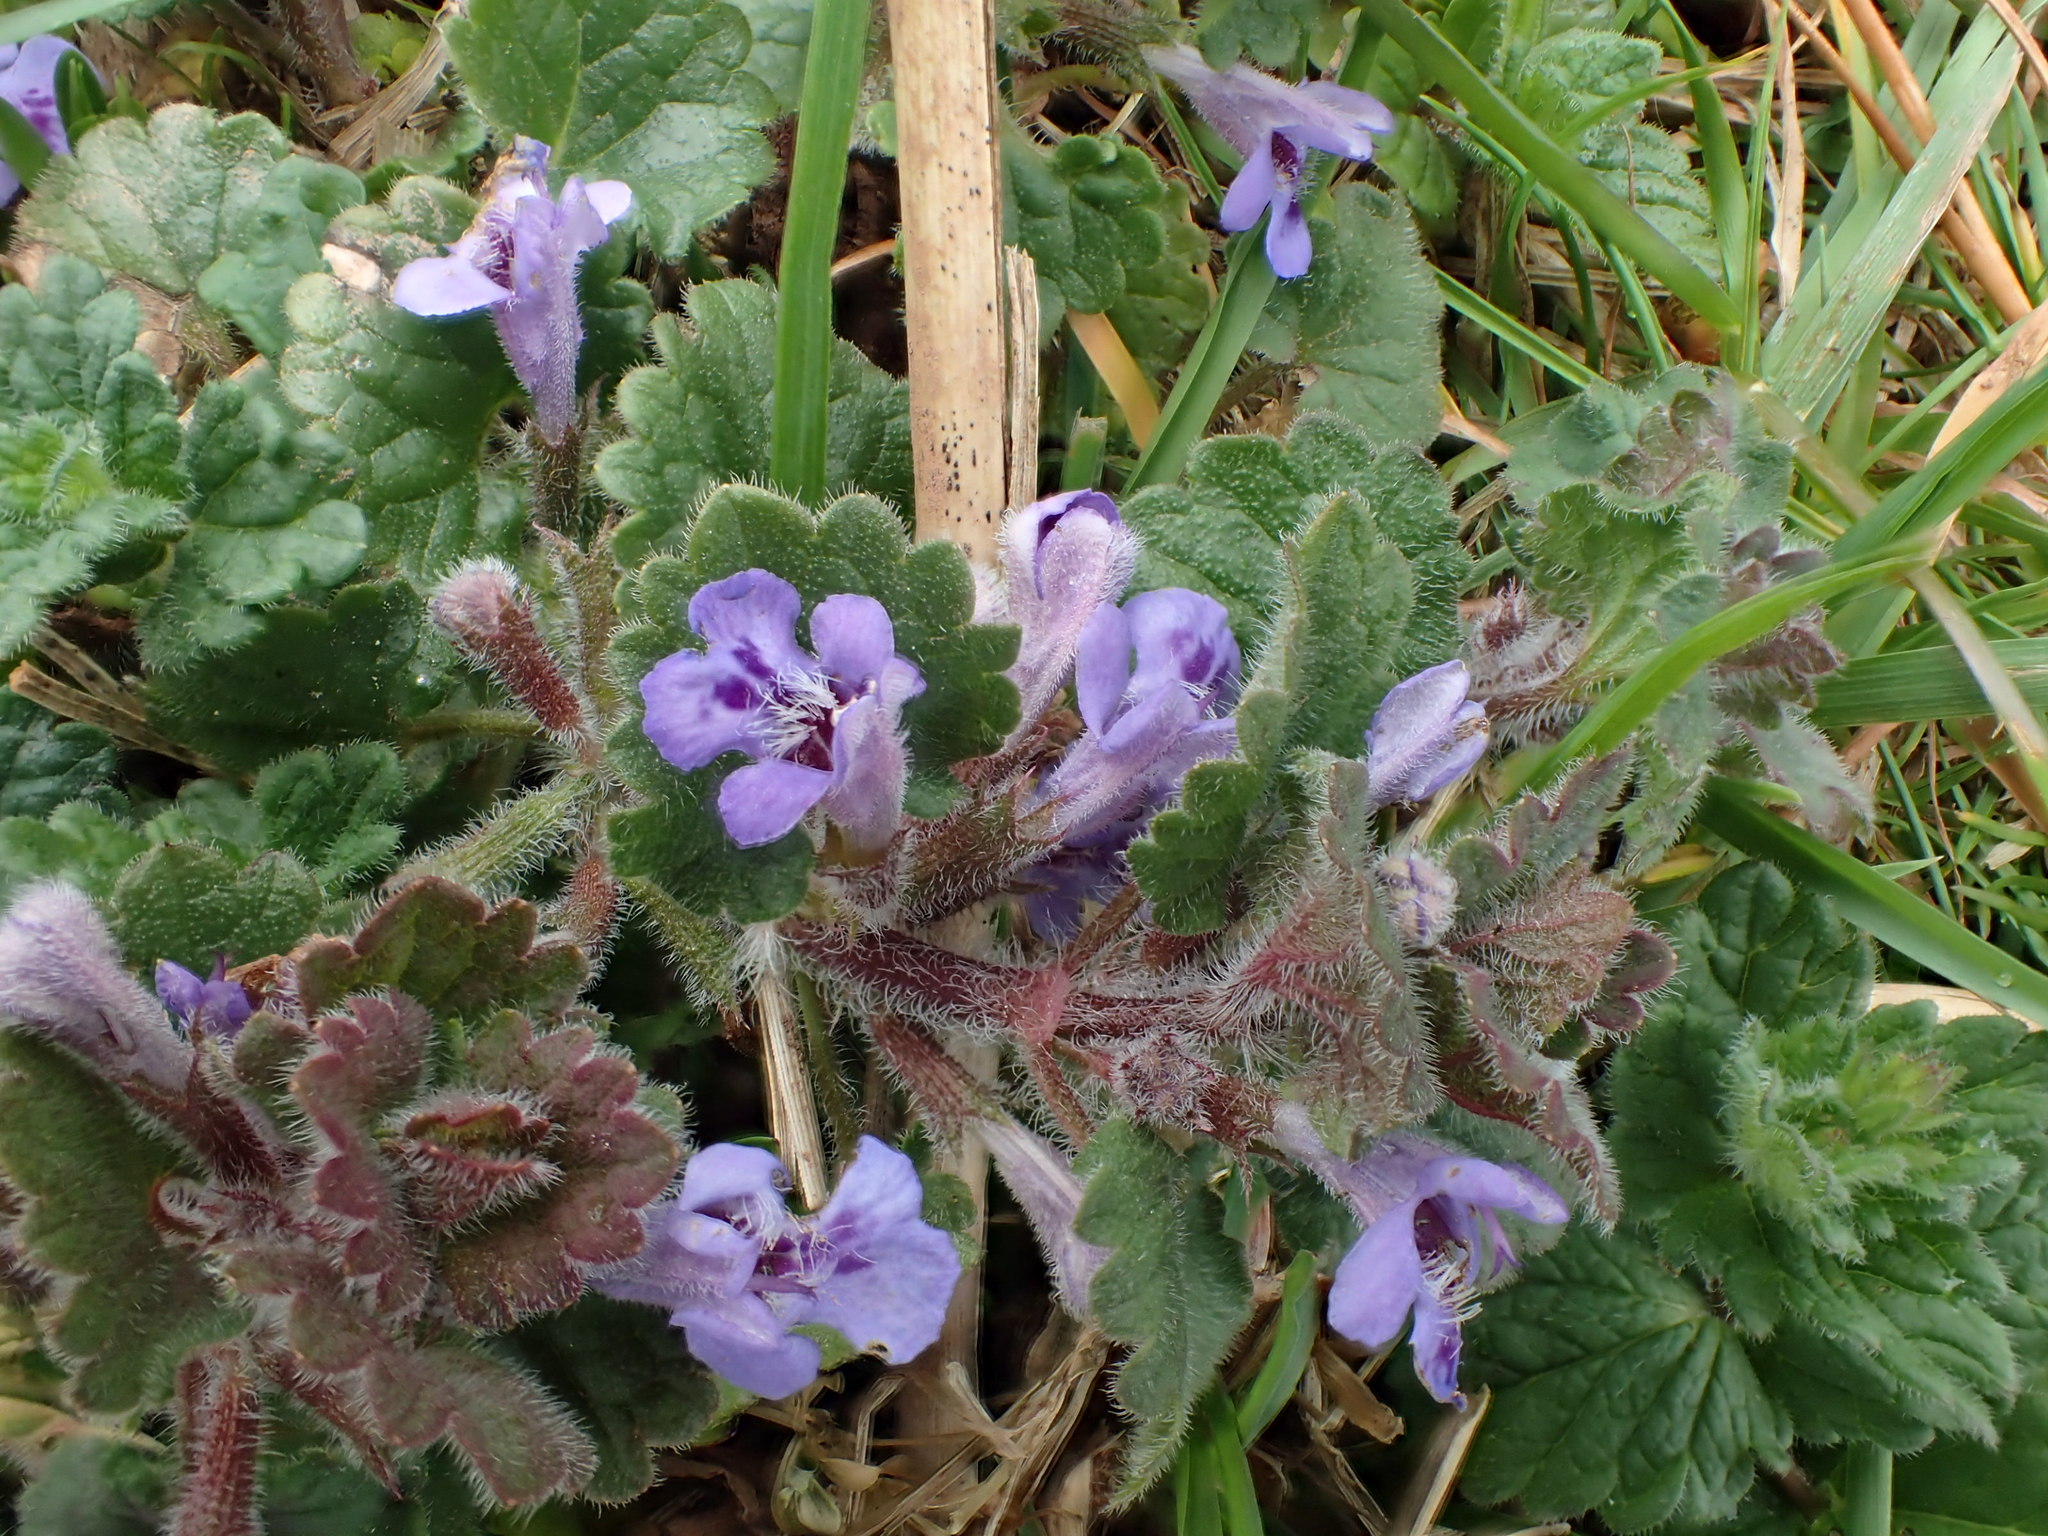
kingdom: Plantae
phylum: Tracheophyta
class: Magnoliopsida
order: Lamiales
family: Lamiaceae
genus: Glechoma
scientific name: Glechoma hederacea
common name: Ground ivy
